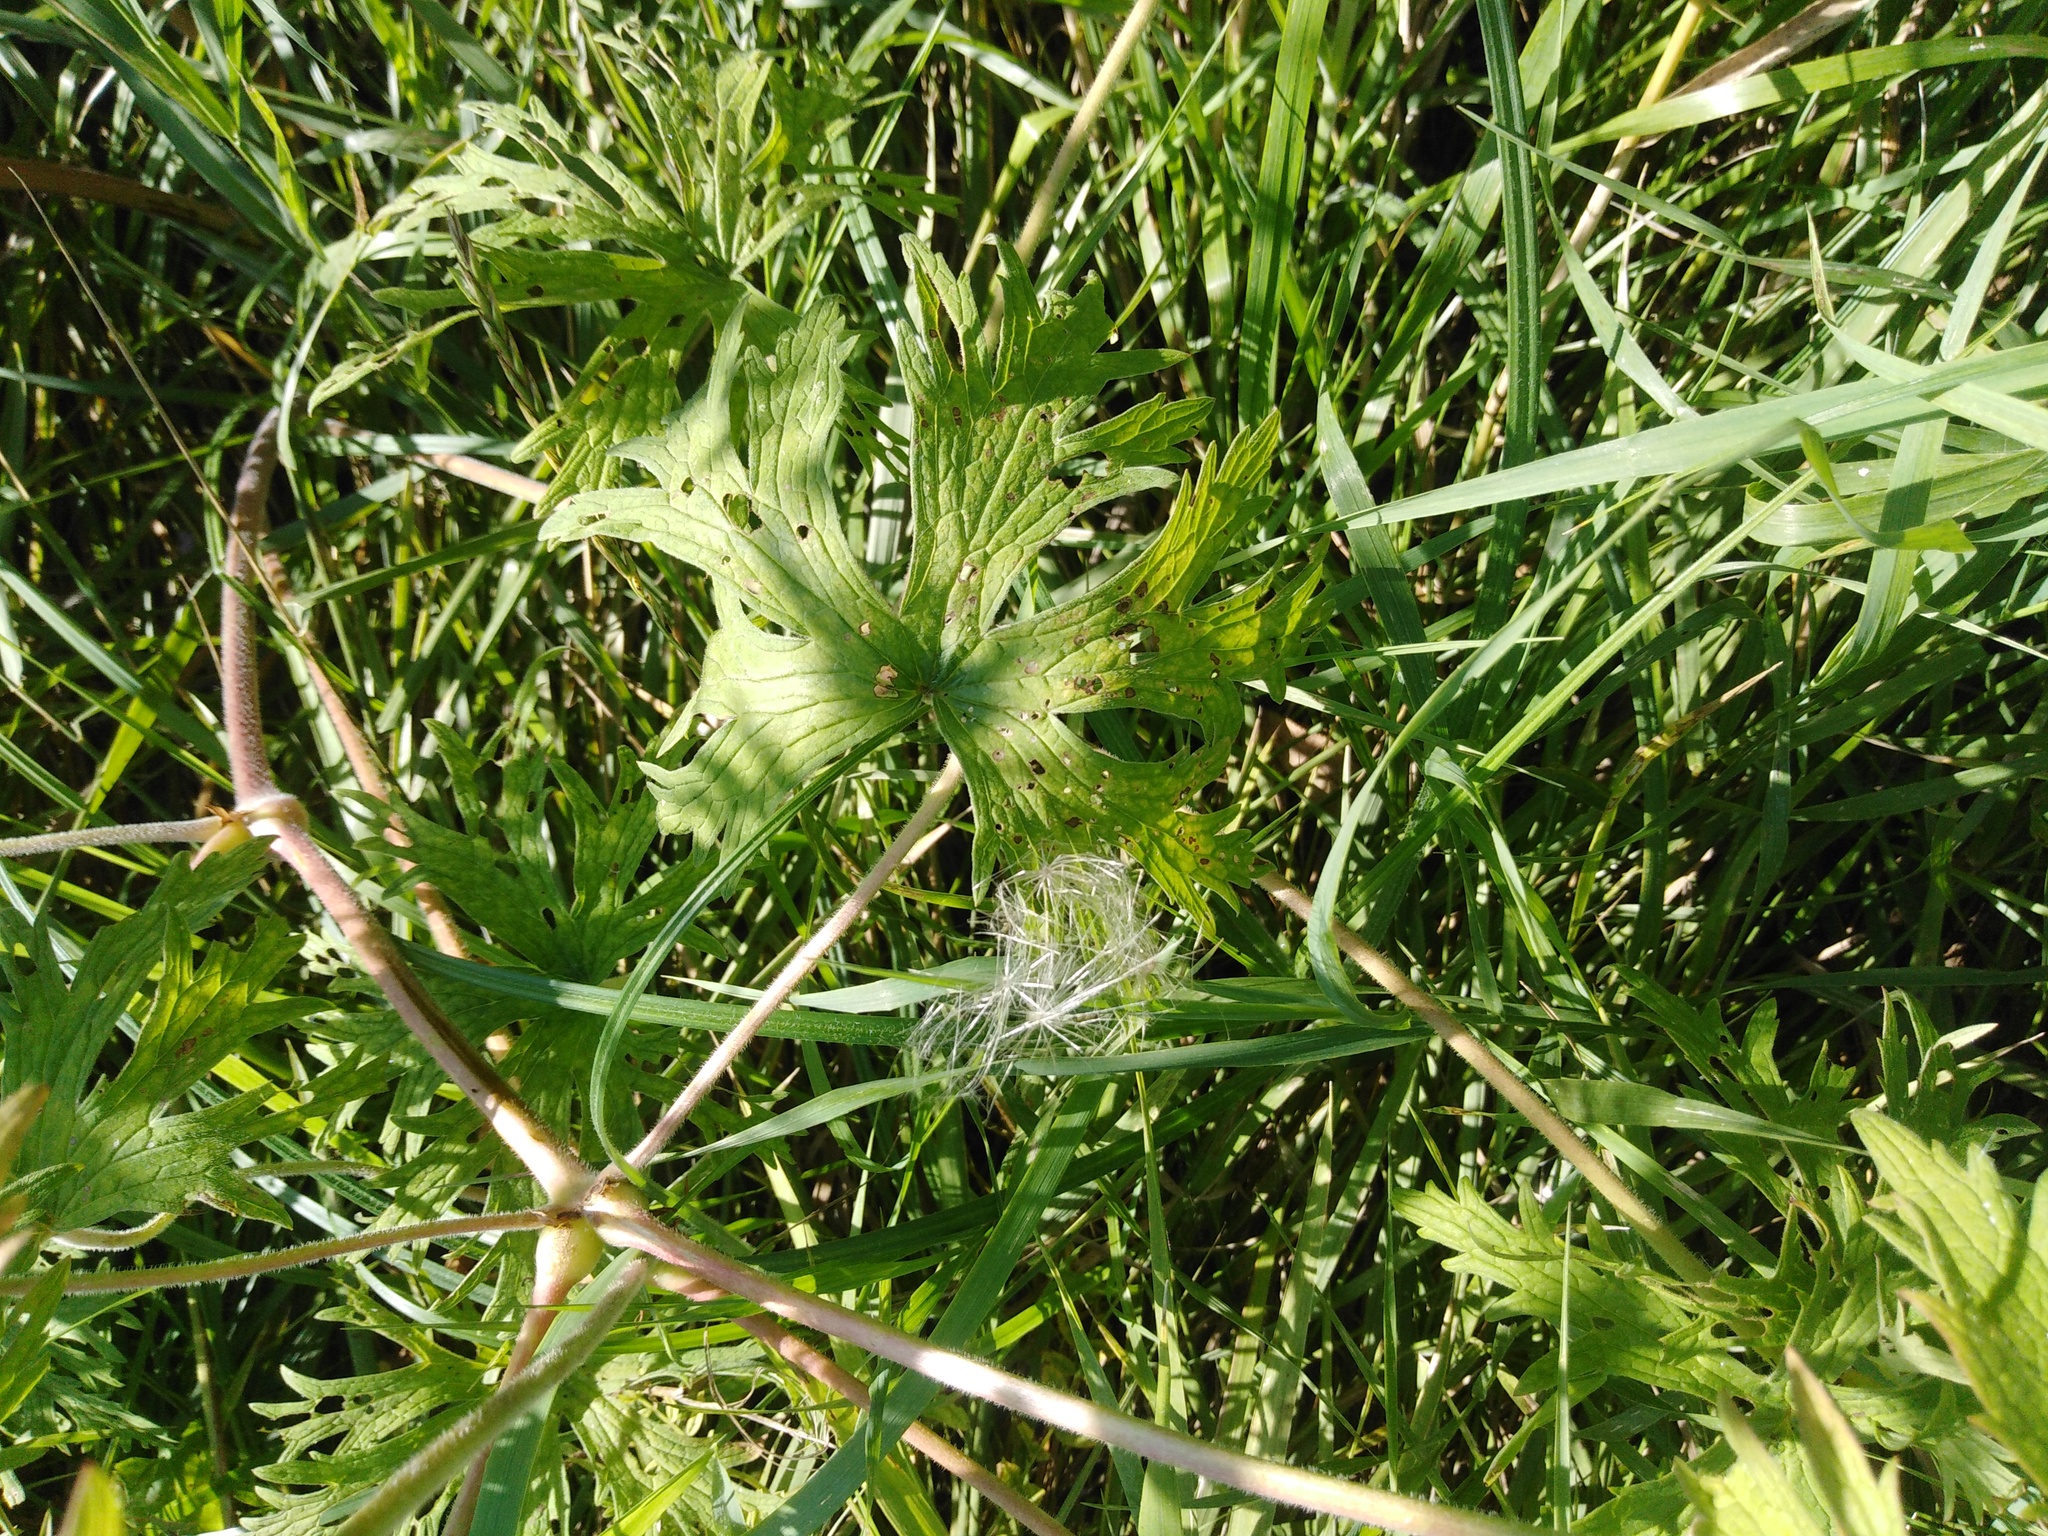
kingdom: Plantae
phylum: Tracheophyta
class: Magnoliopsida
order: Geraniales
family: Geraniaceae
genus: Geranium
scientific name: Geranium pratense
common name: Meadow crane's-bill
